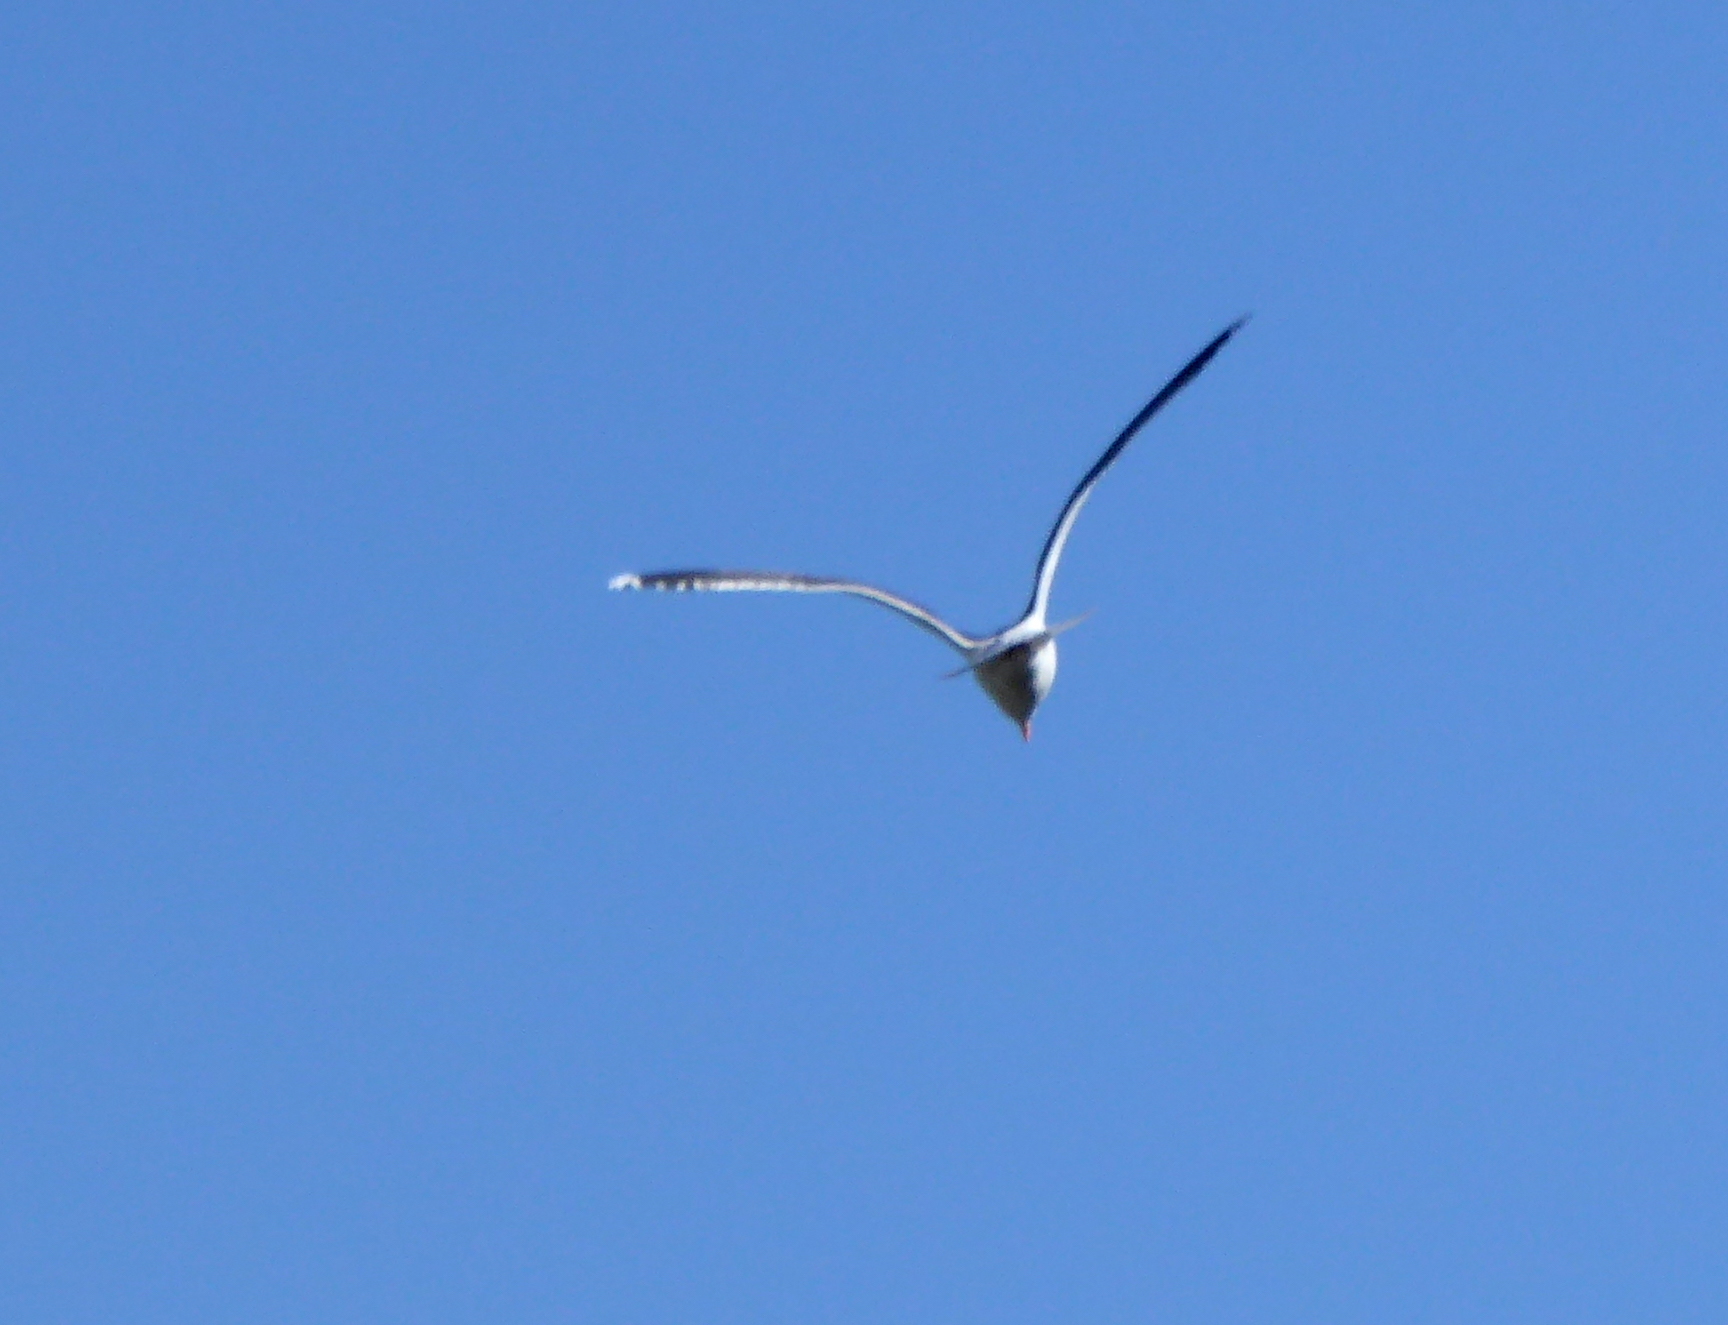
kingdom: Animalia
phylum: Chordata
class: Aves
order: Charadriiformes
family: Laridae
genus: Larus
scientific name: Larus occidentalis
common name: Western gull
